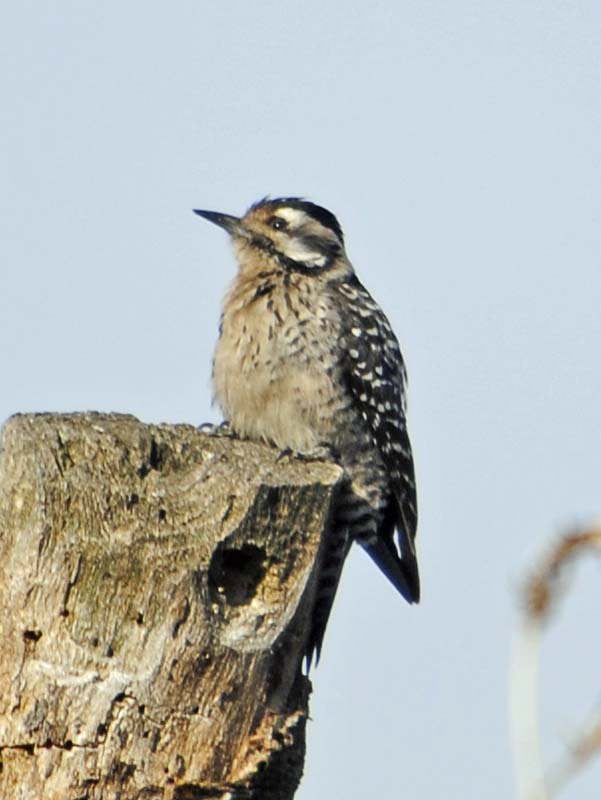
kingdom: Animalia
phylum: Chordata
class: Aves
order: Piciformes
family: Picidae
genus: Dryobates
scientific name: Dryobates scalaris
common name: Ladder-backed woodpecker
